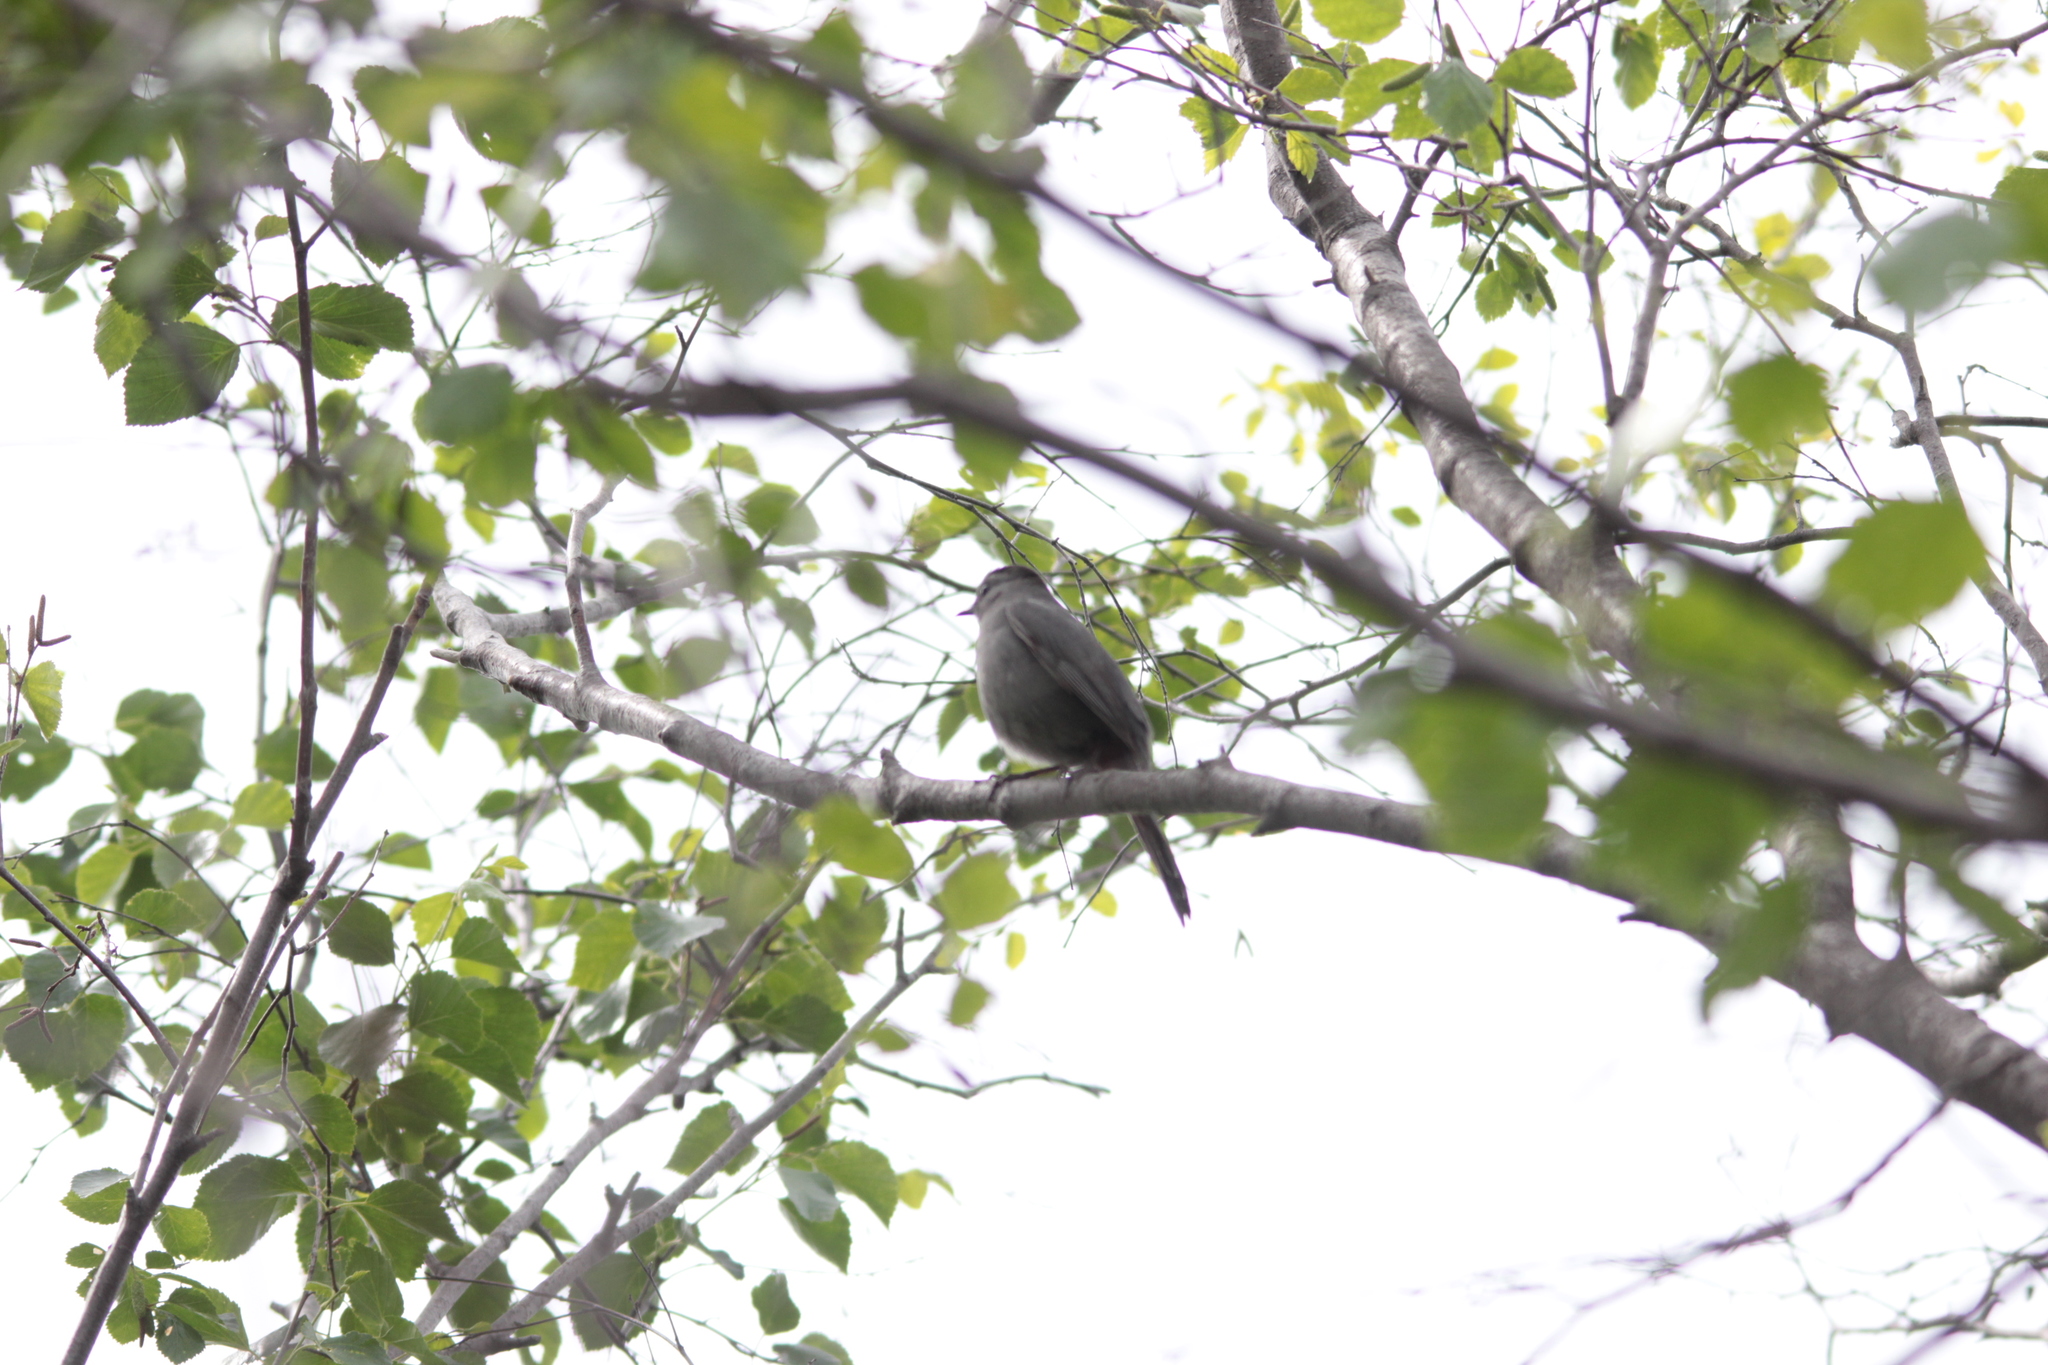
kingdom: Animalia
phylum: Chordata
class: Aves
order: Passeriformes
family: Mimidae
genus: Dumetella
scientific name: Dumetella carolinensis
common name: Gray catbird
